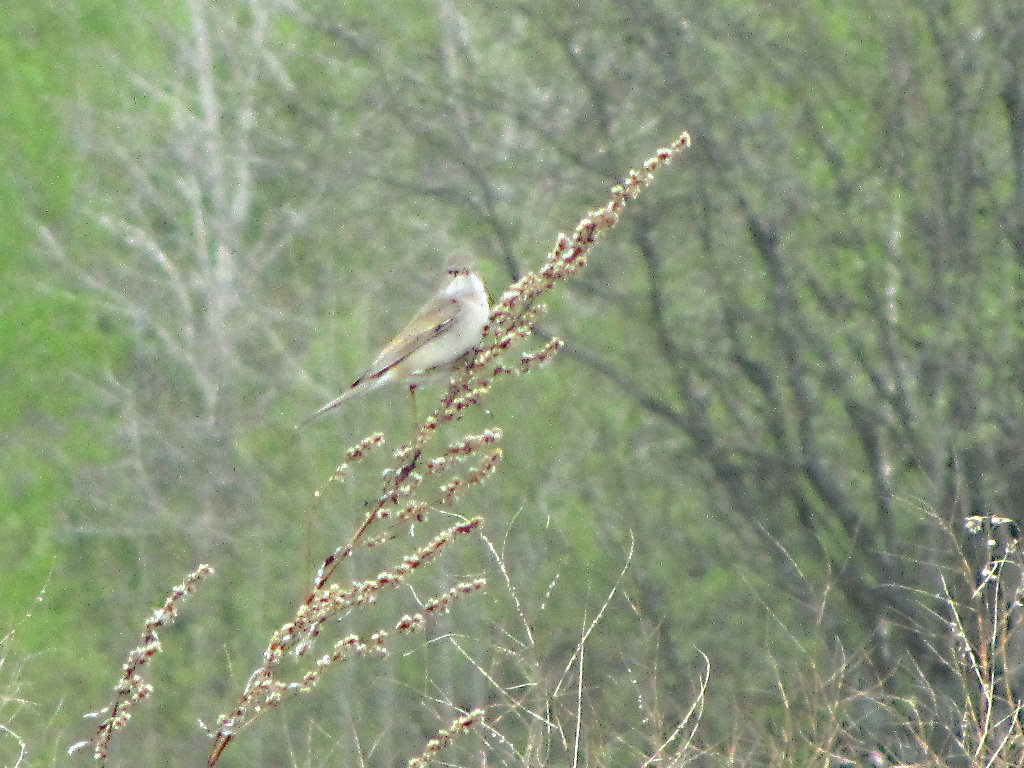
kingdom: Animalia
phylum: Chordata
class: Aves
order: Passeriformes
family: Sylviidae
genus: Sylvia
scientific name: Sylvia communis
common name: Common whitethroat
